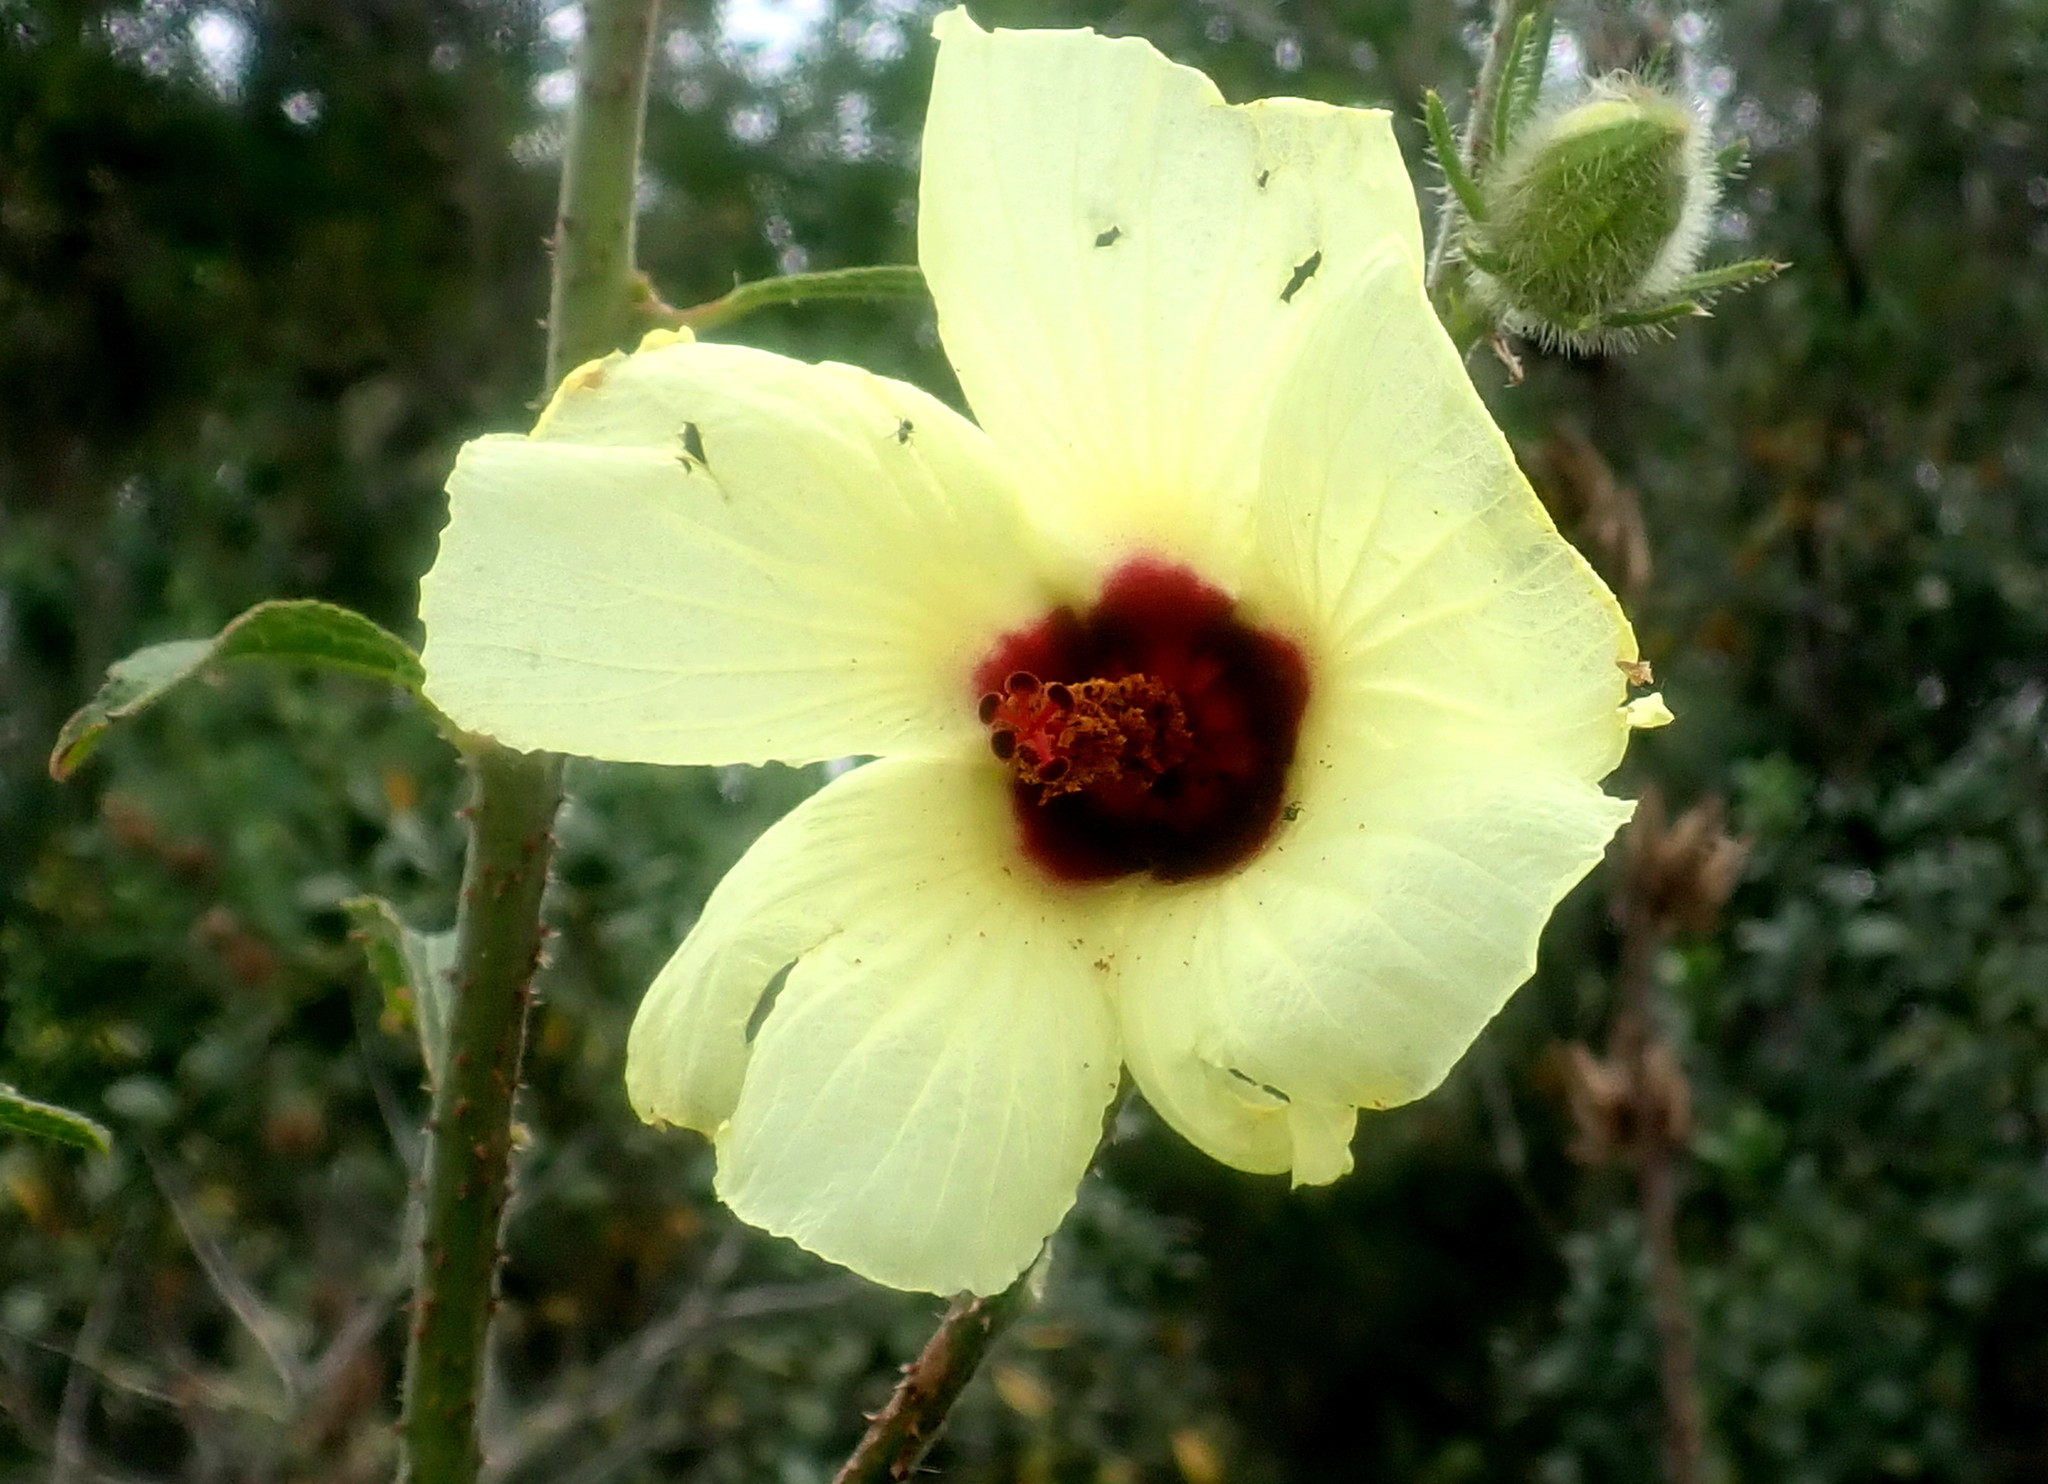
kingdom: Plantae
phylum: Tracheophyta
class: Magnoliopsida
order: Malvales
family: Malvaceae
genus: Hibiscus
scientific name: Hibiscus diversifolius
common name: Cape hibiscus
